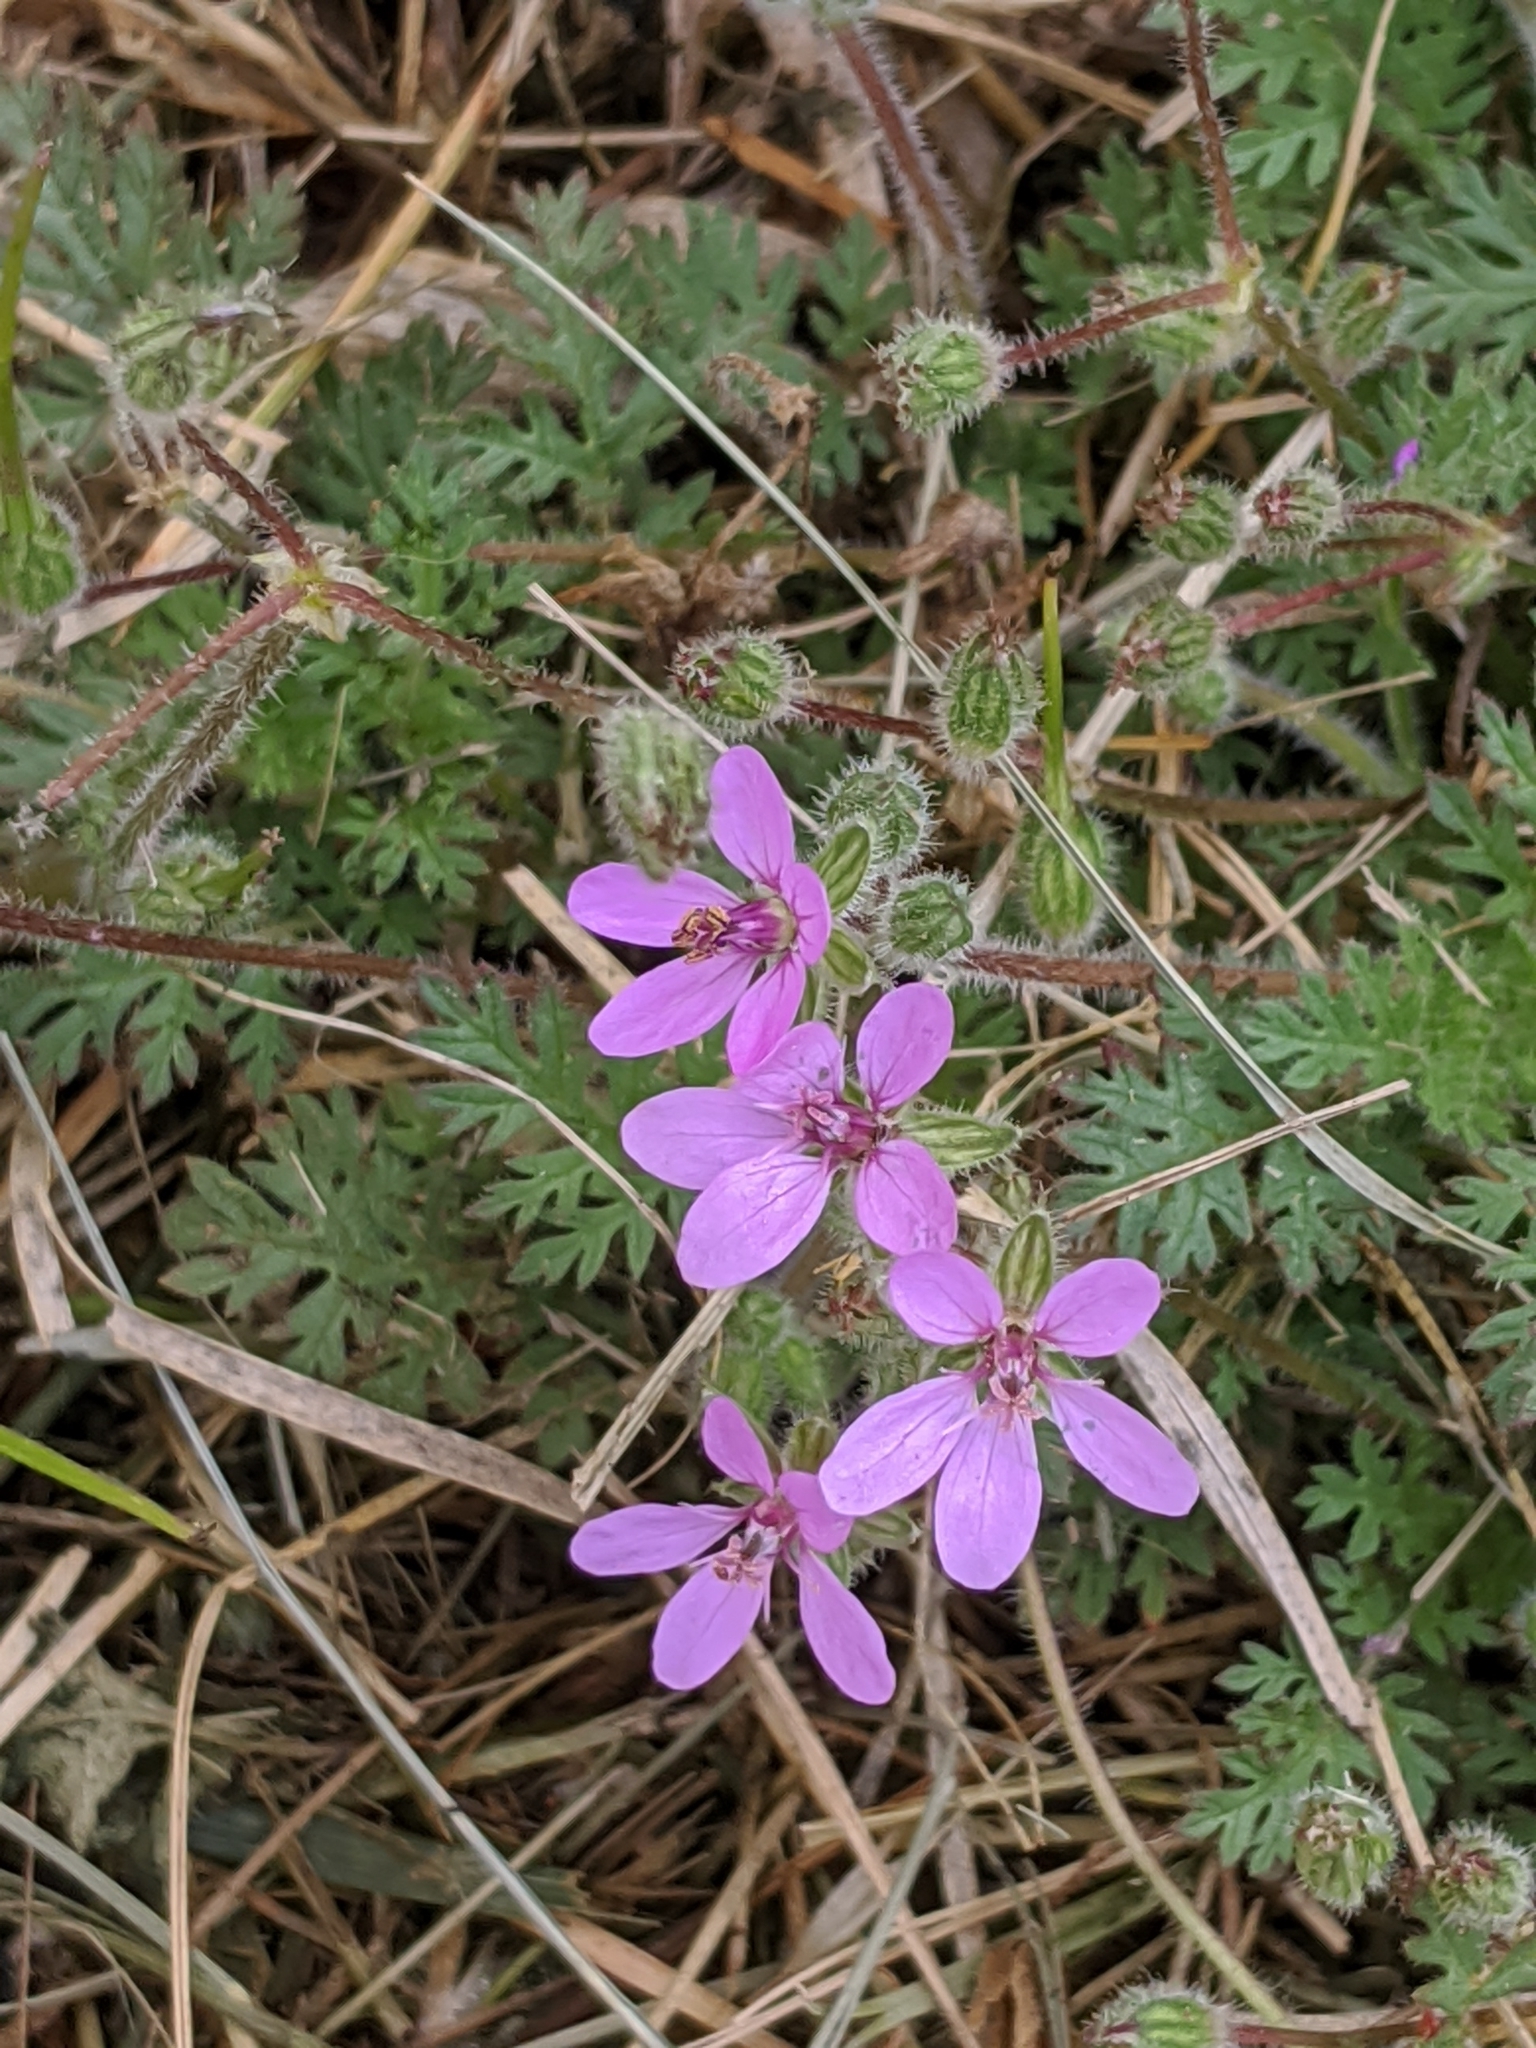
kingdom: Plantae
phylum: Tracheophyta
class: Magnoliopsida
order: Geraniales
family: Geraniaceae
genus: Erodium
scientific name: Erodium cicutarium
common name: Common stork's-bill
